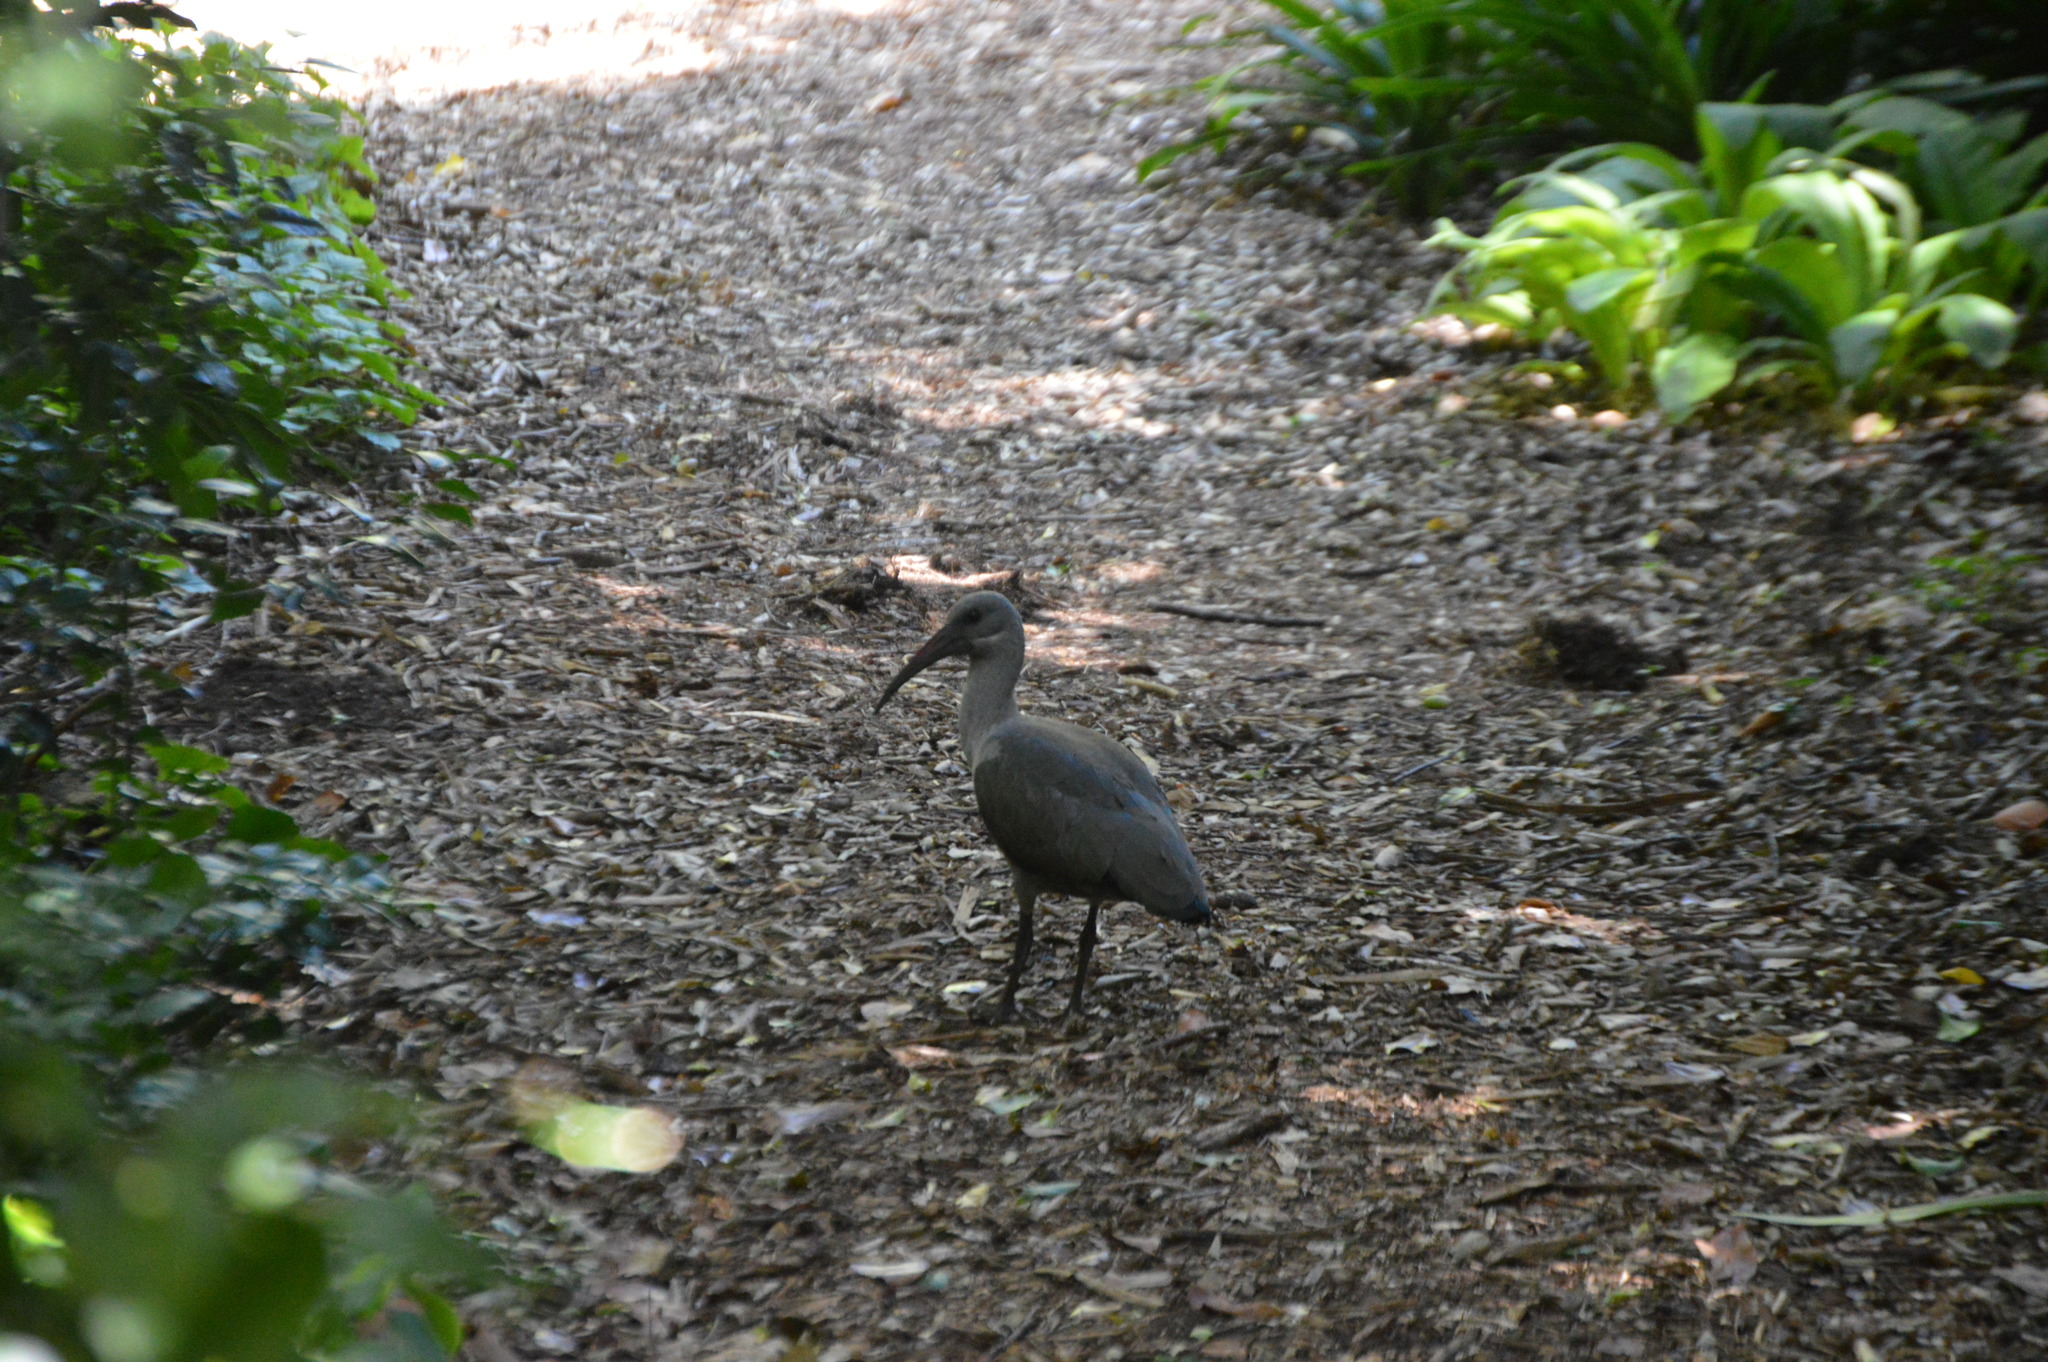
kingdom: Animalia
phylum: Chordata
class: Aves
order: Pelecaniformes
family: Threskiornithidae
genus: Bostrychia
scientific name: Bostrychia hagedash
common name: Hadada ibis
